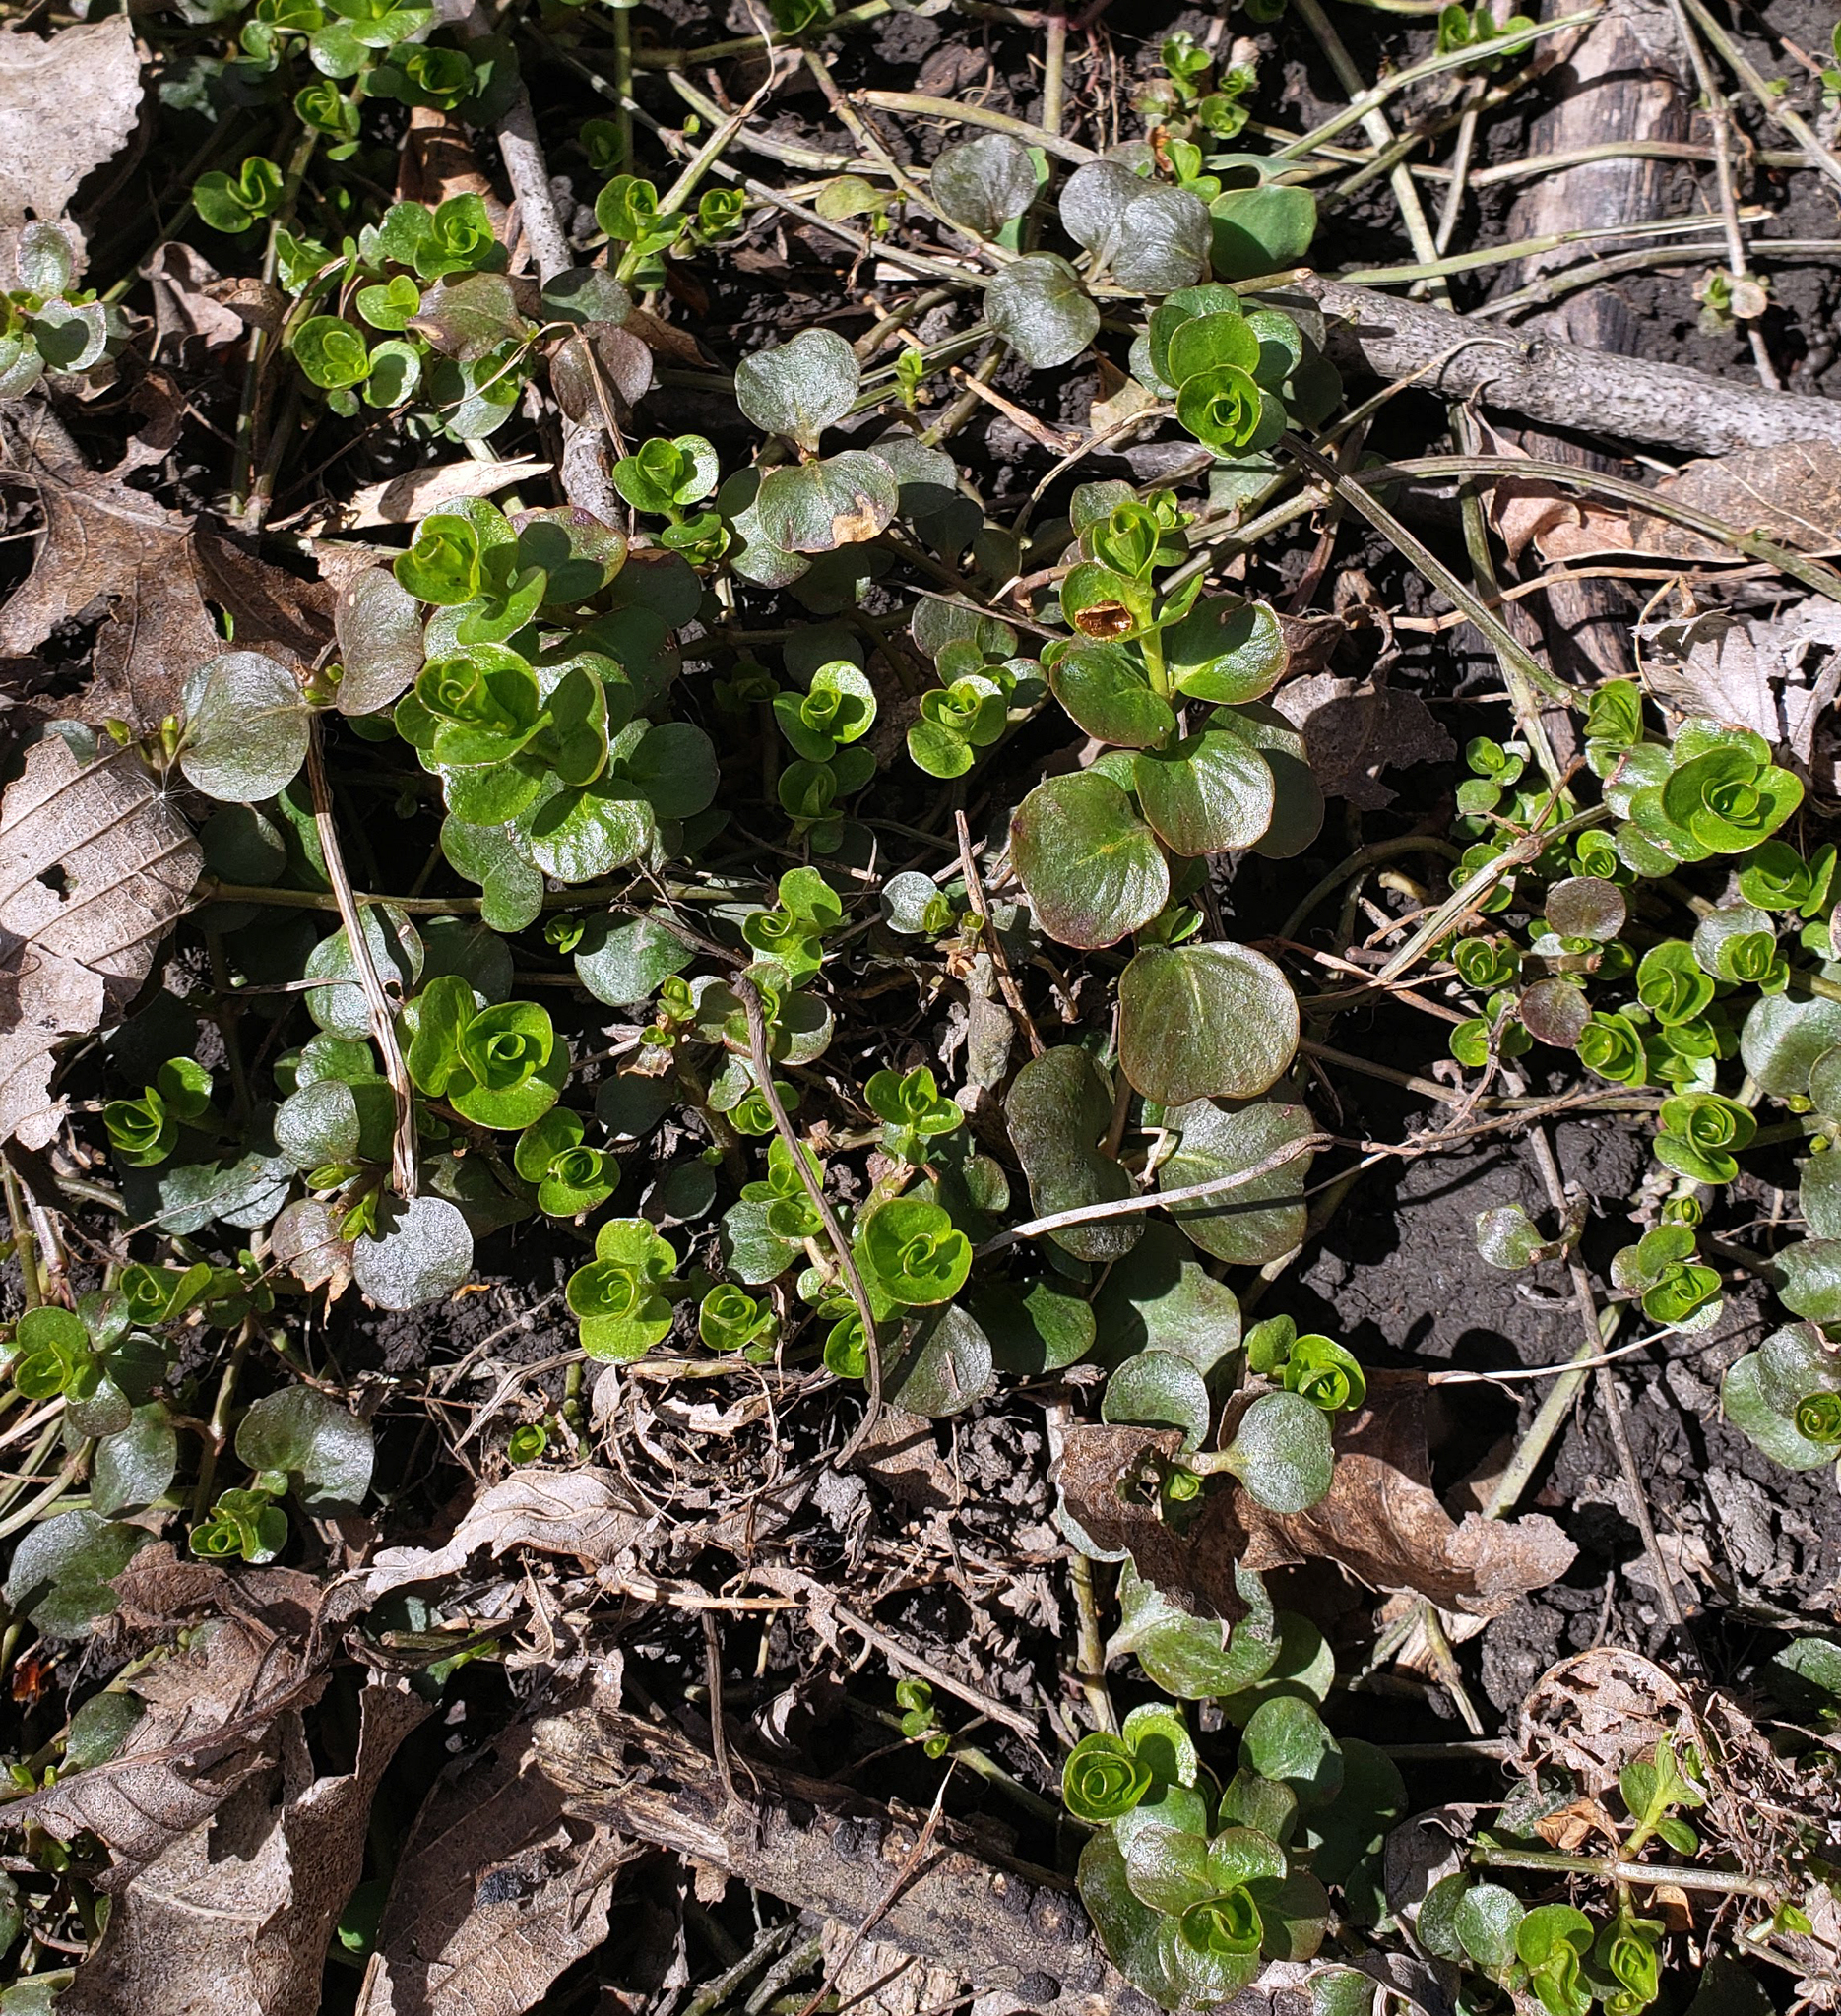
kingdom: Plantae
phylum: Tracheophyta
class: Magnoliopsida
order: Ericales
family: Primulaceae
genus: Lysimachia
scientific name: Lysimachia nummularia
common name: Moneywort
